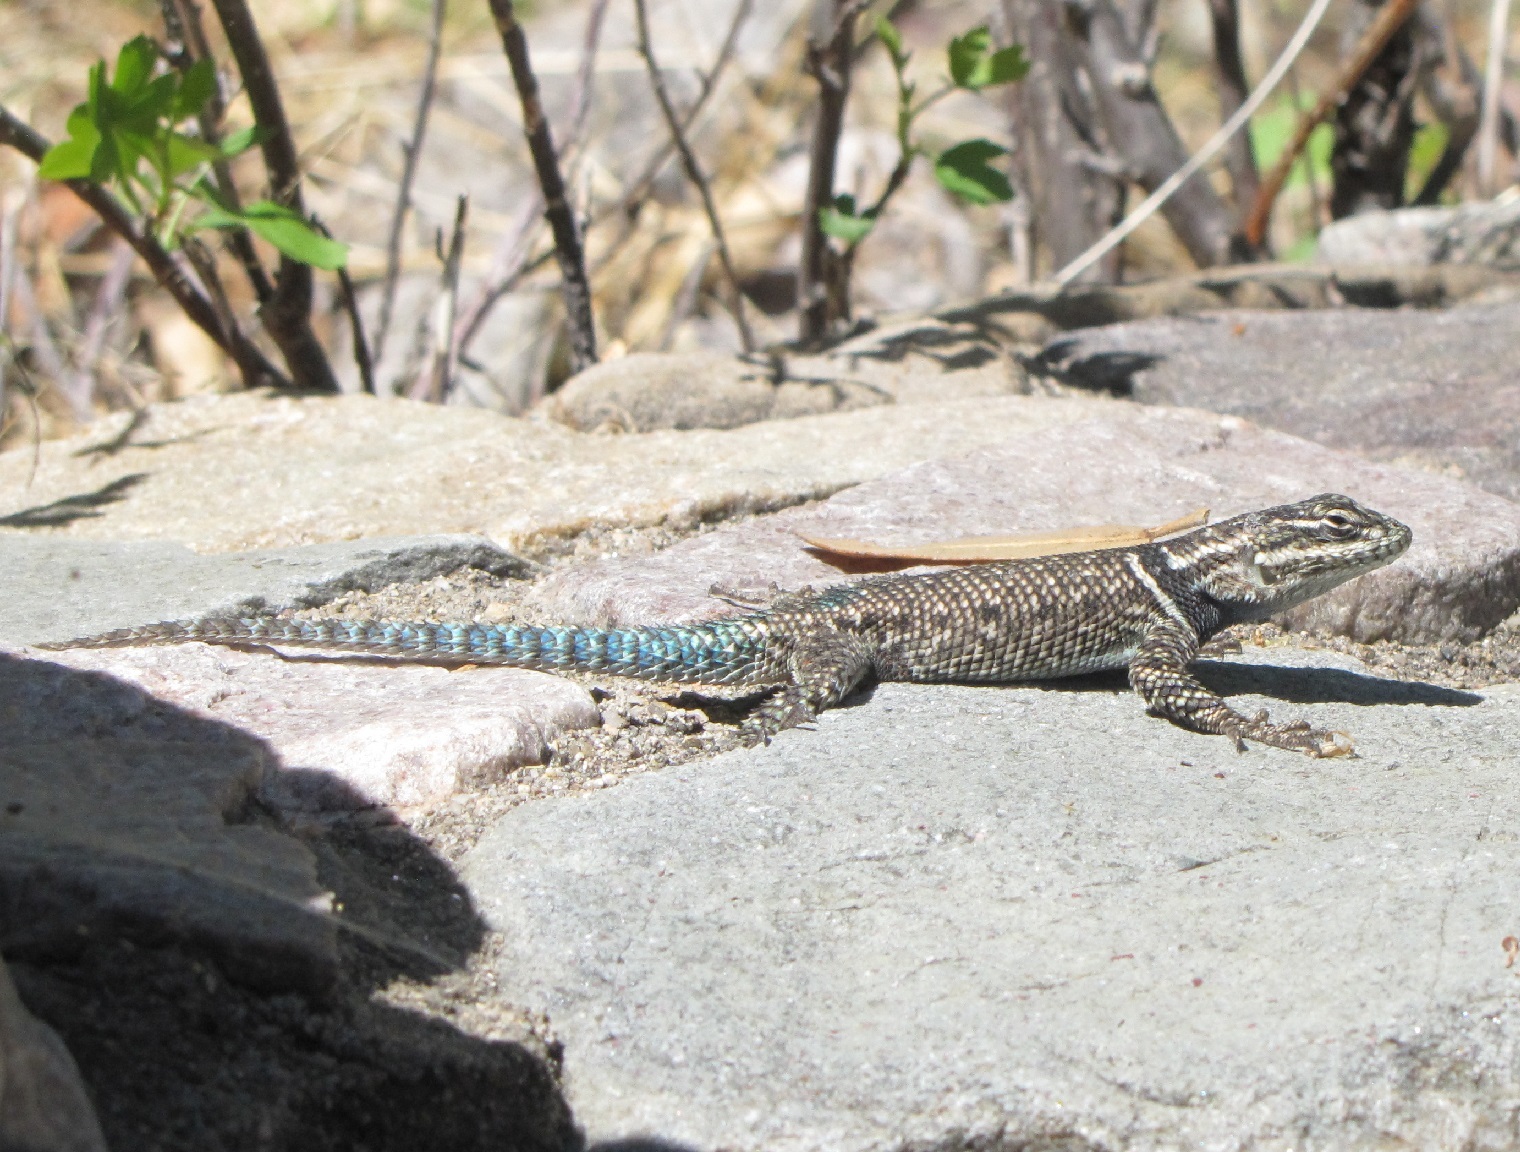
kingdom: Animalia
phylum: Chordata
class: Squamata
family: Phrynosomatidae
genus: Sceloporus
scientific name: Sceloporus jarrovii
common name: Yarrow's spiny lizard
